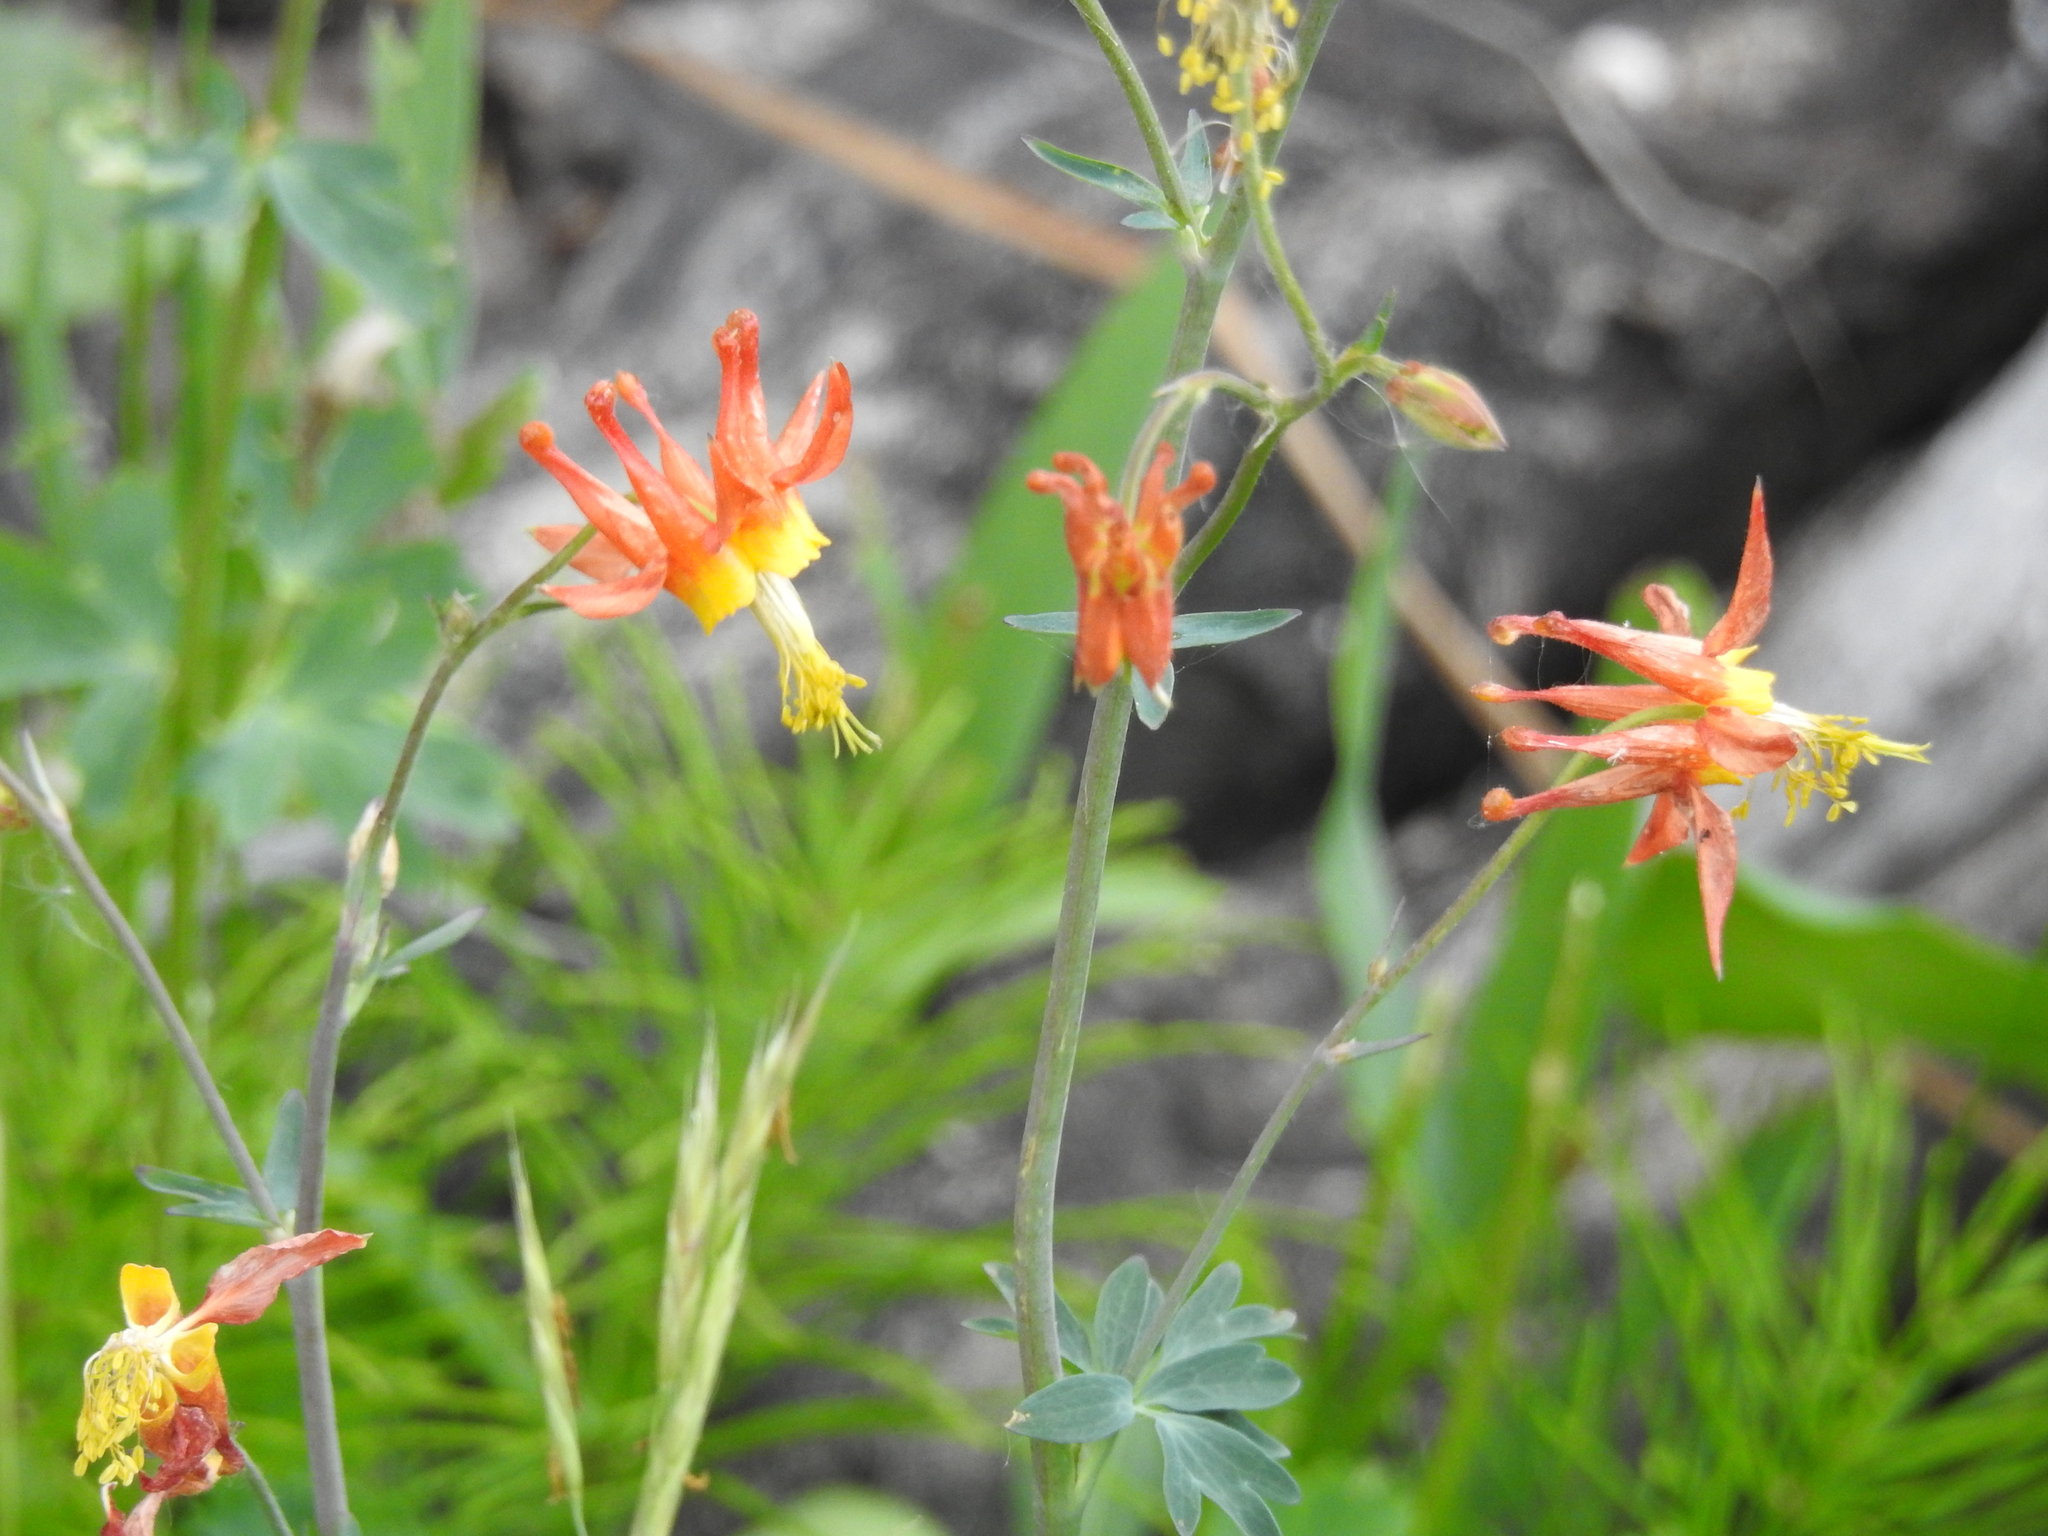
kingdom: Plantae
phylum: Tracheophyta
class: Magnoliopsida
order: Ranunculales
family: Ranunculaceae
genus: Aquilegia
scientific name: Aquilegia formosa
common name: Sitka columbine
